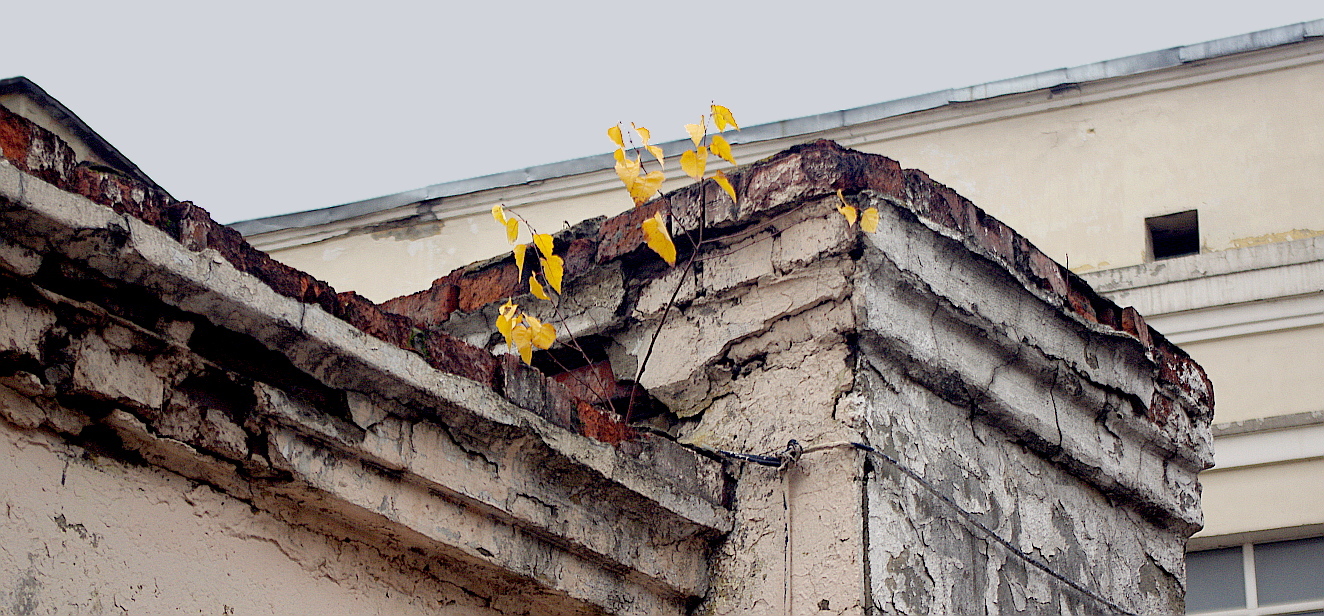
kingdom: Plantae
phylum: Tracheophyta
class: Magnoliopsida
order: Fagales
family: Betulaceae
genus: Betula
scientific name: Betula pendula
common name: Silver birch
